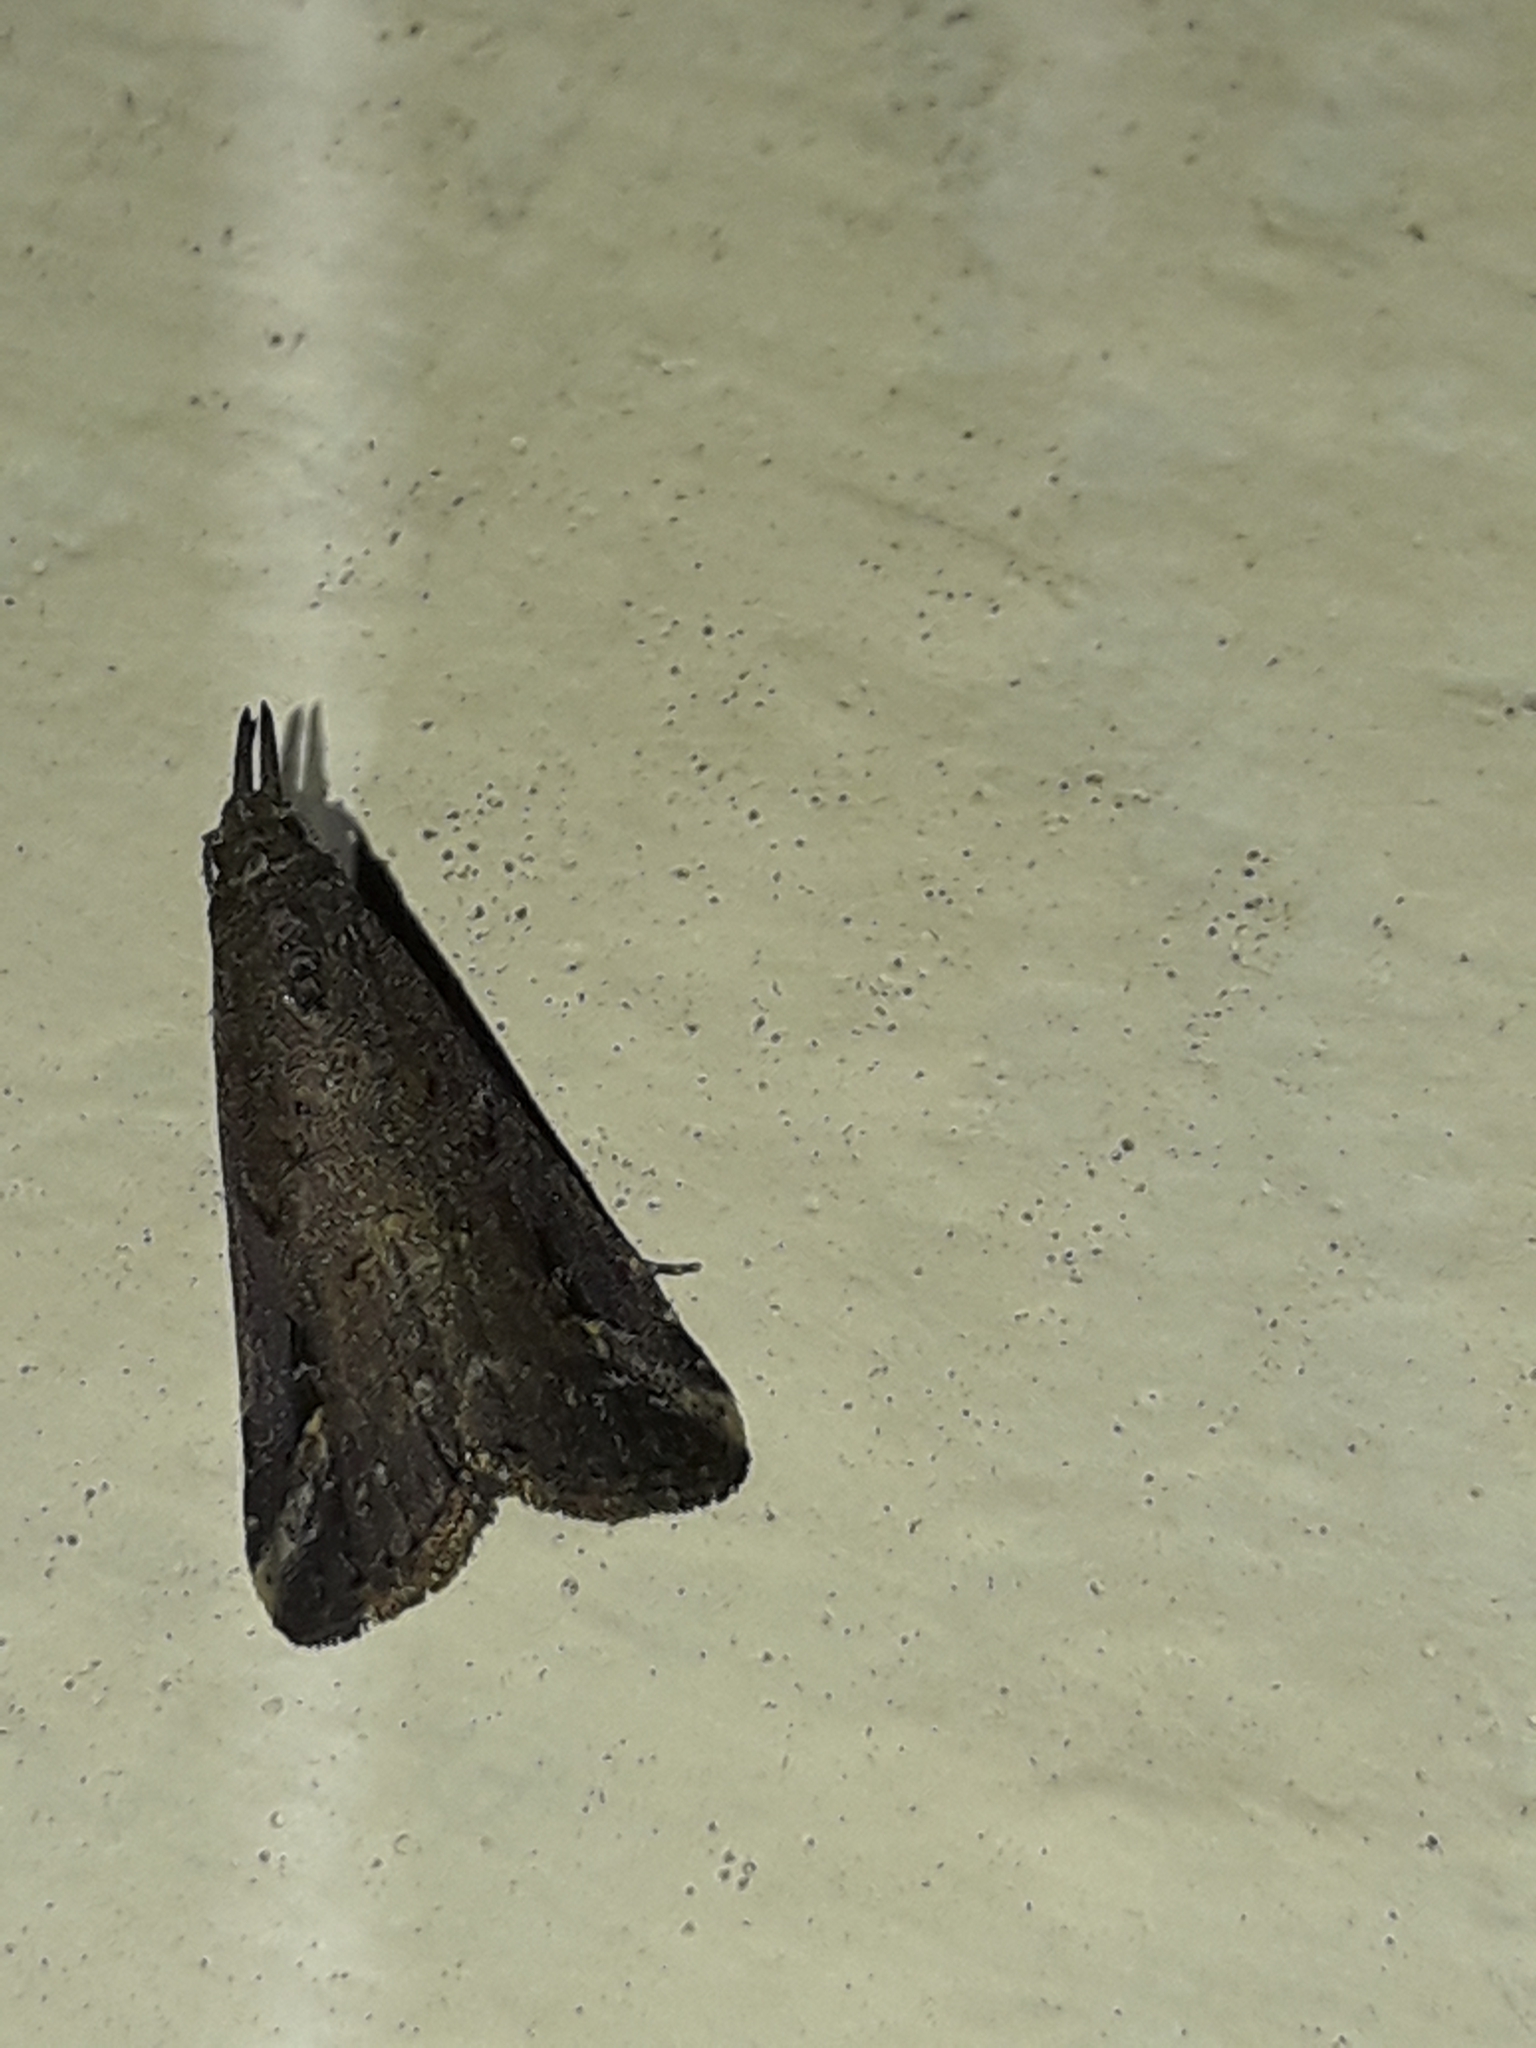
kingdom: Animalia
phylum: Arthropoda
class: Insecta
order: Lepidoptera
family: Erebidae
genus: Schrankia
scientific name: Schrankia costaestrigalis
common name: Pinion-streaked snout
